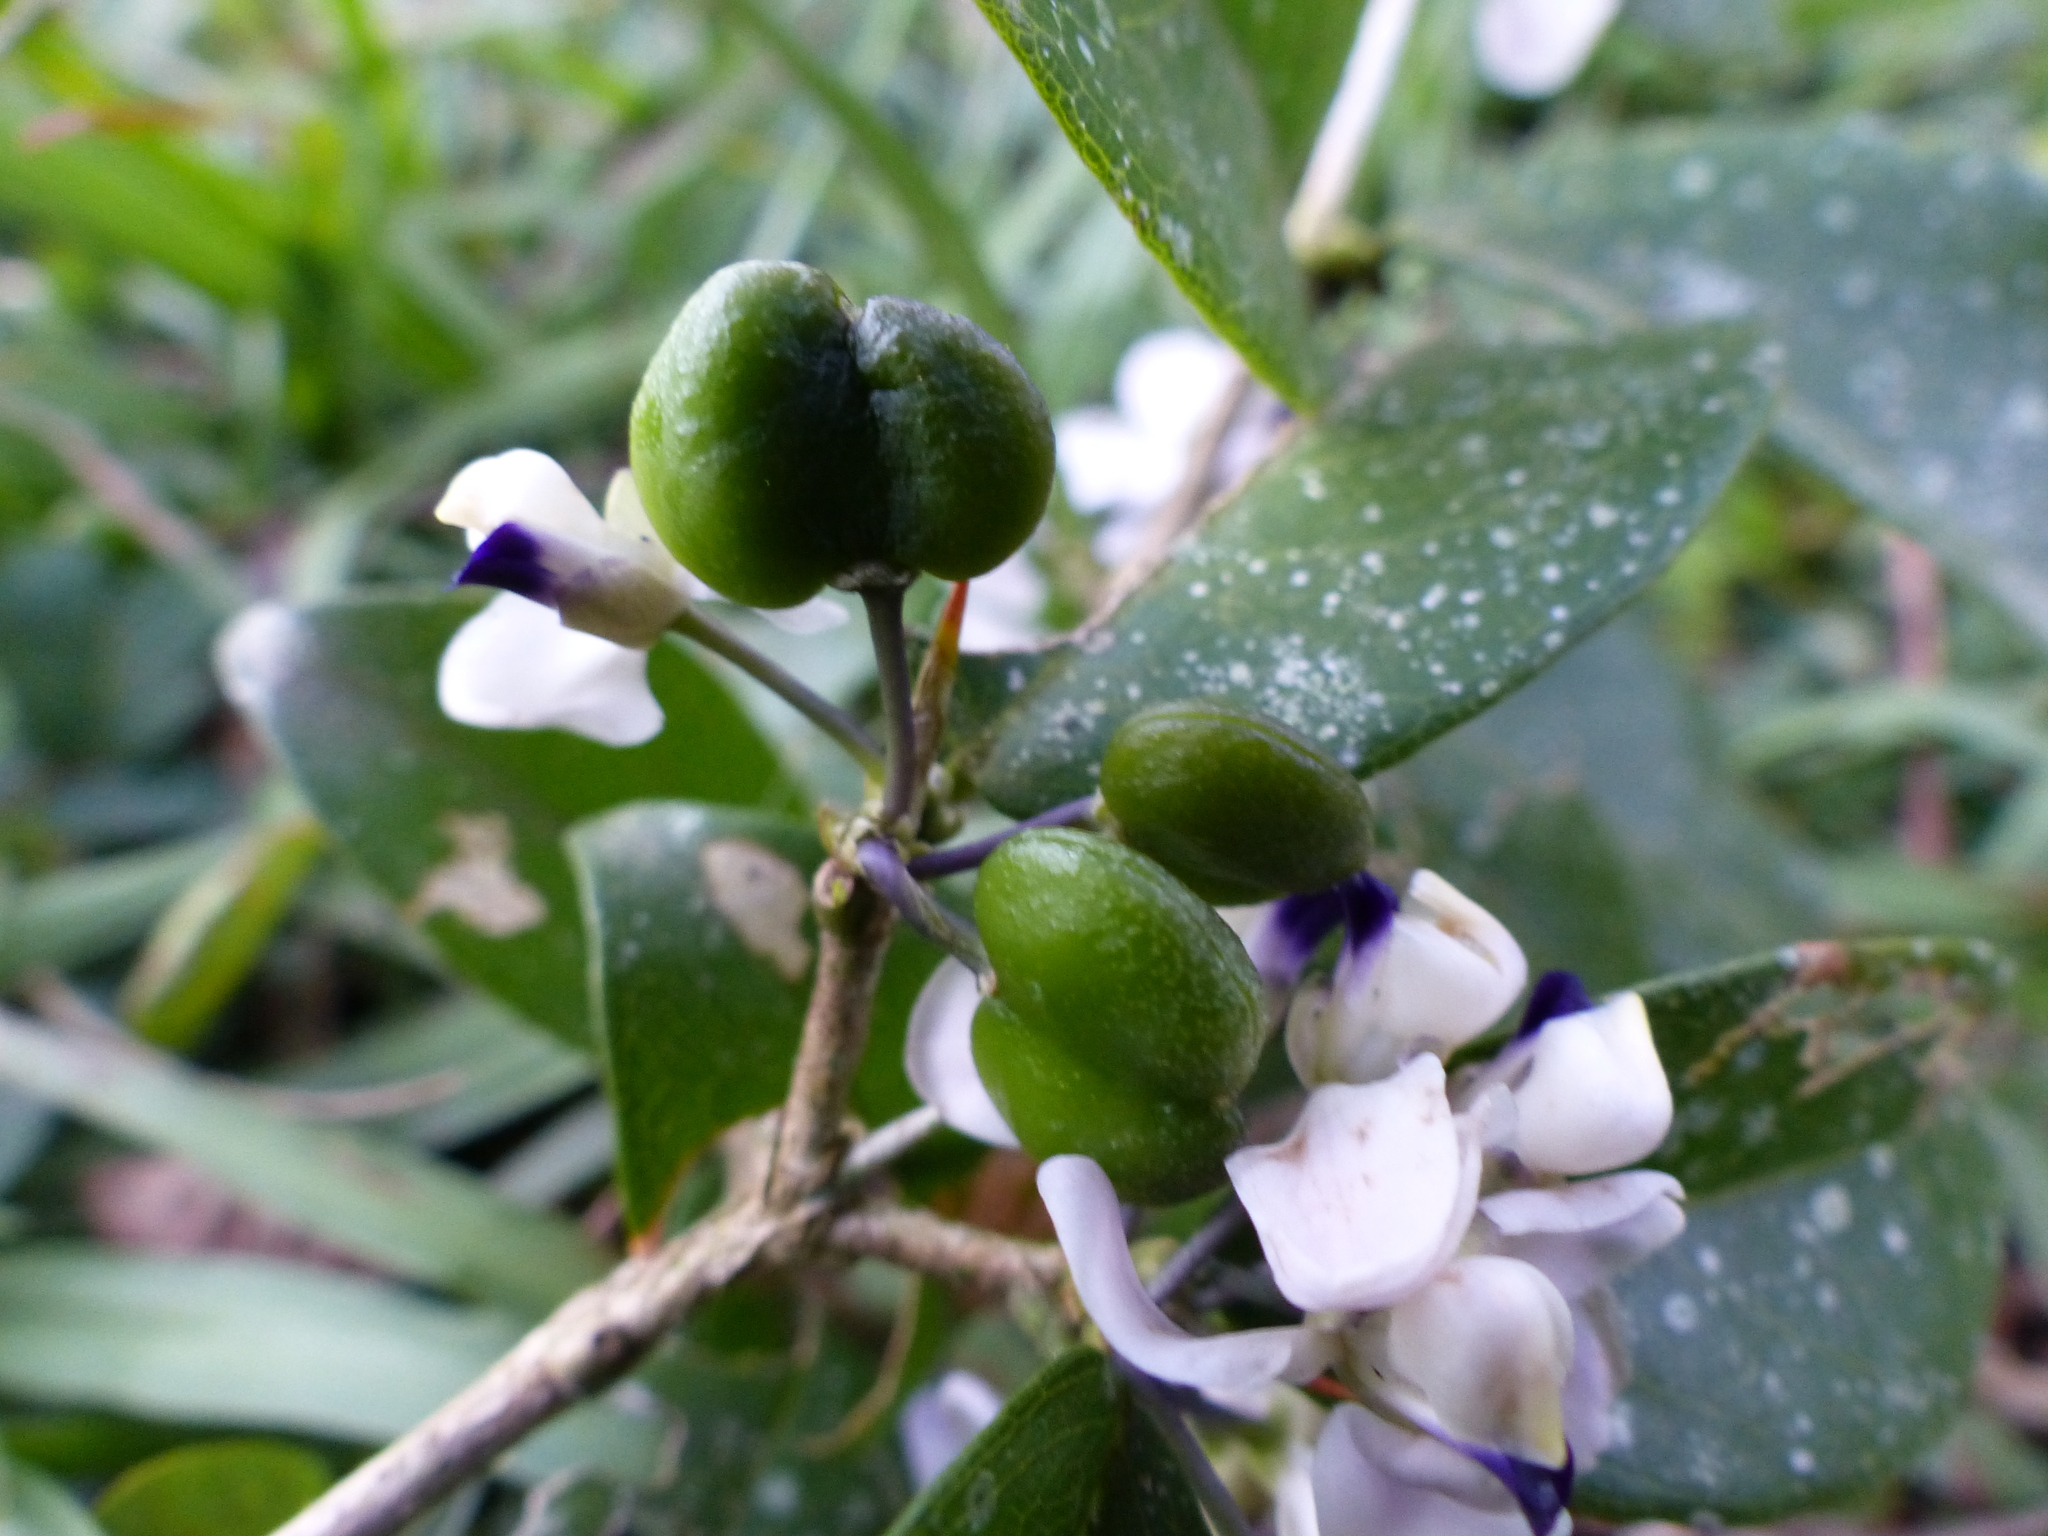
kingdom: Plantae
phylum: Tracheophyta
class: Magnoliopsida
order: Fabales
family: Polygalaceae
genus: Acanthocladus
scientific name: Acanthocladus dichromus
